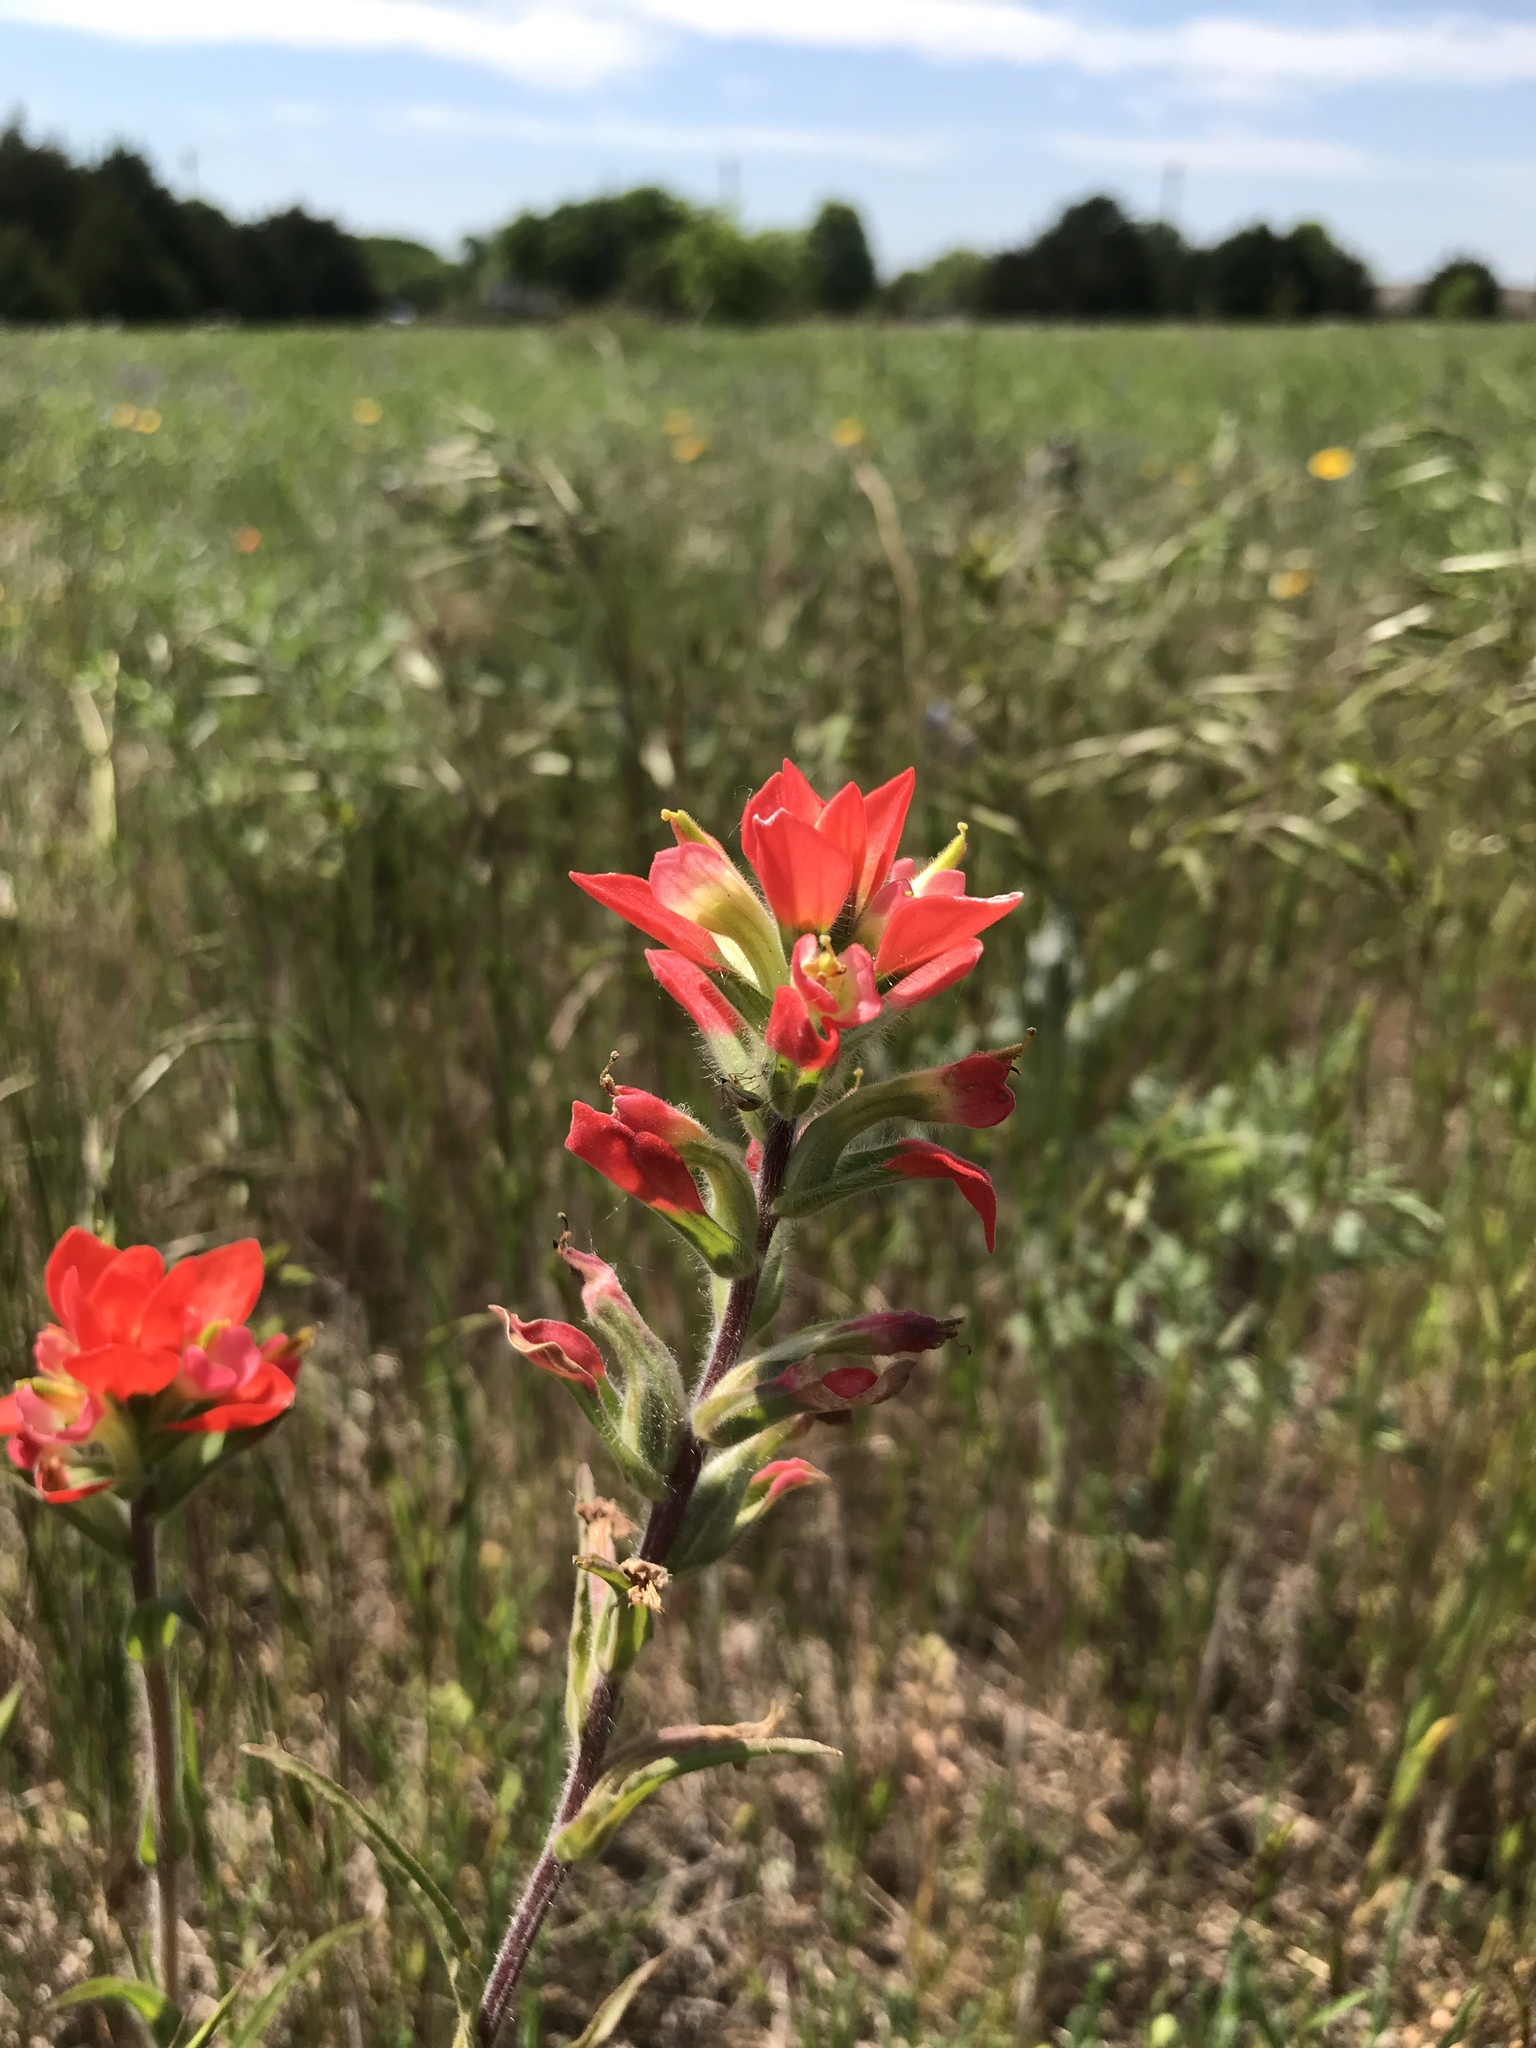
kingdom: Plantae
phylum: Tracheophyta
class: Magnoliopsida
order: Lamiales
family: Orobanchaceae
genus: Castilleja
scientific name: Castilleja indivisa
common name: Texas paintbrush
